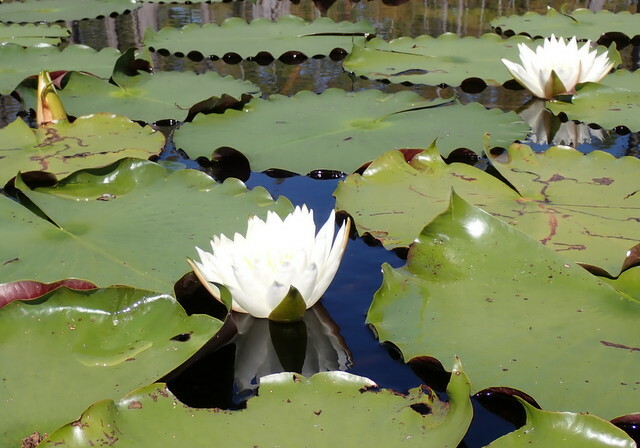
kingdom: Plantae
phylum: Tracheophyta
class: Magnoliopsida
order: Nymphaeales
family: Nymphaeaceae
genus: Nymphaea
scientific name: Nymphaea odorata
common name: Fragrant water-lily
